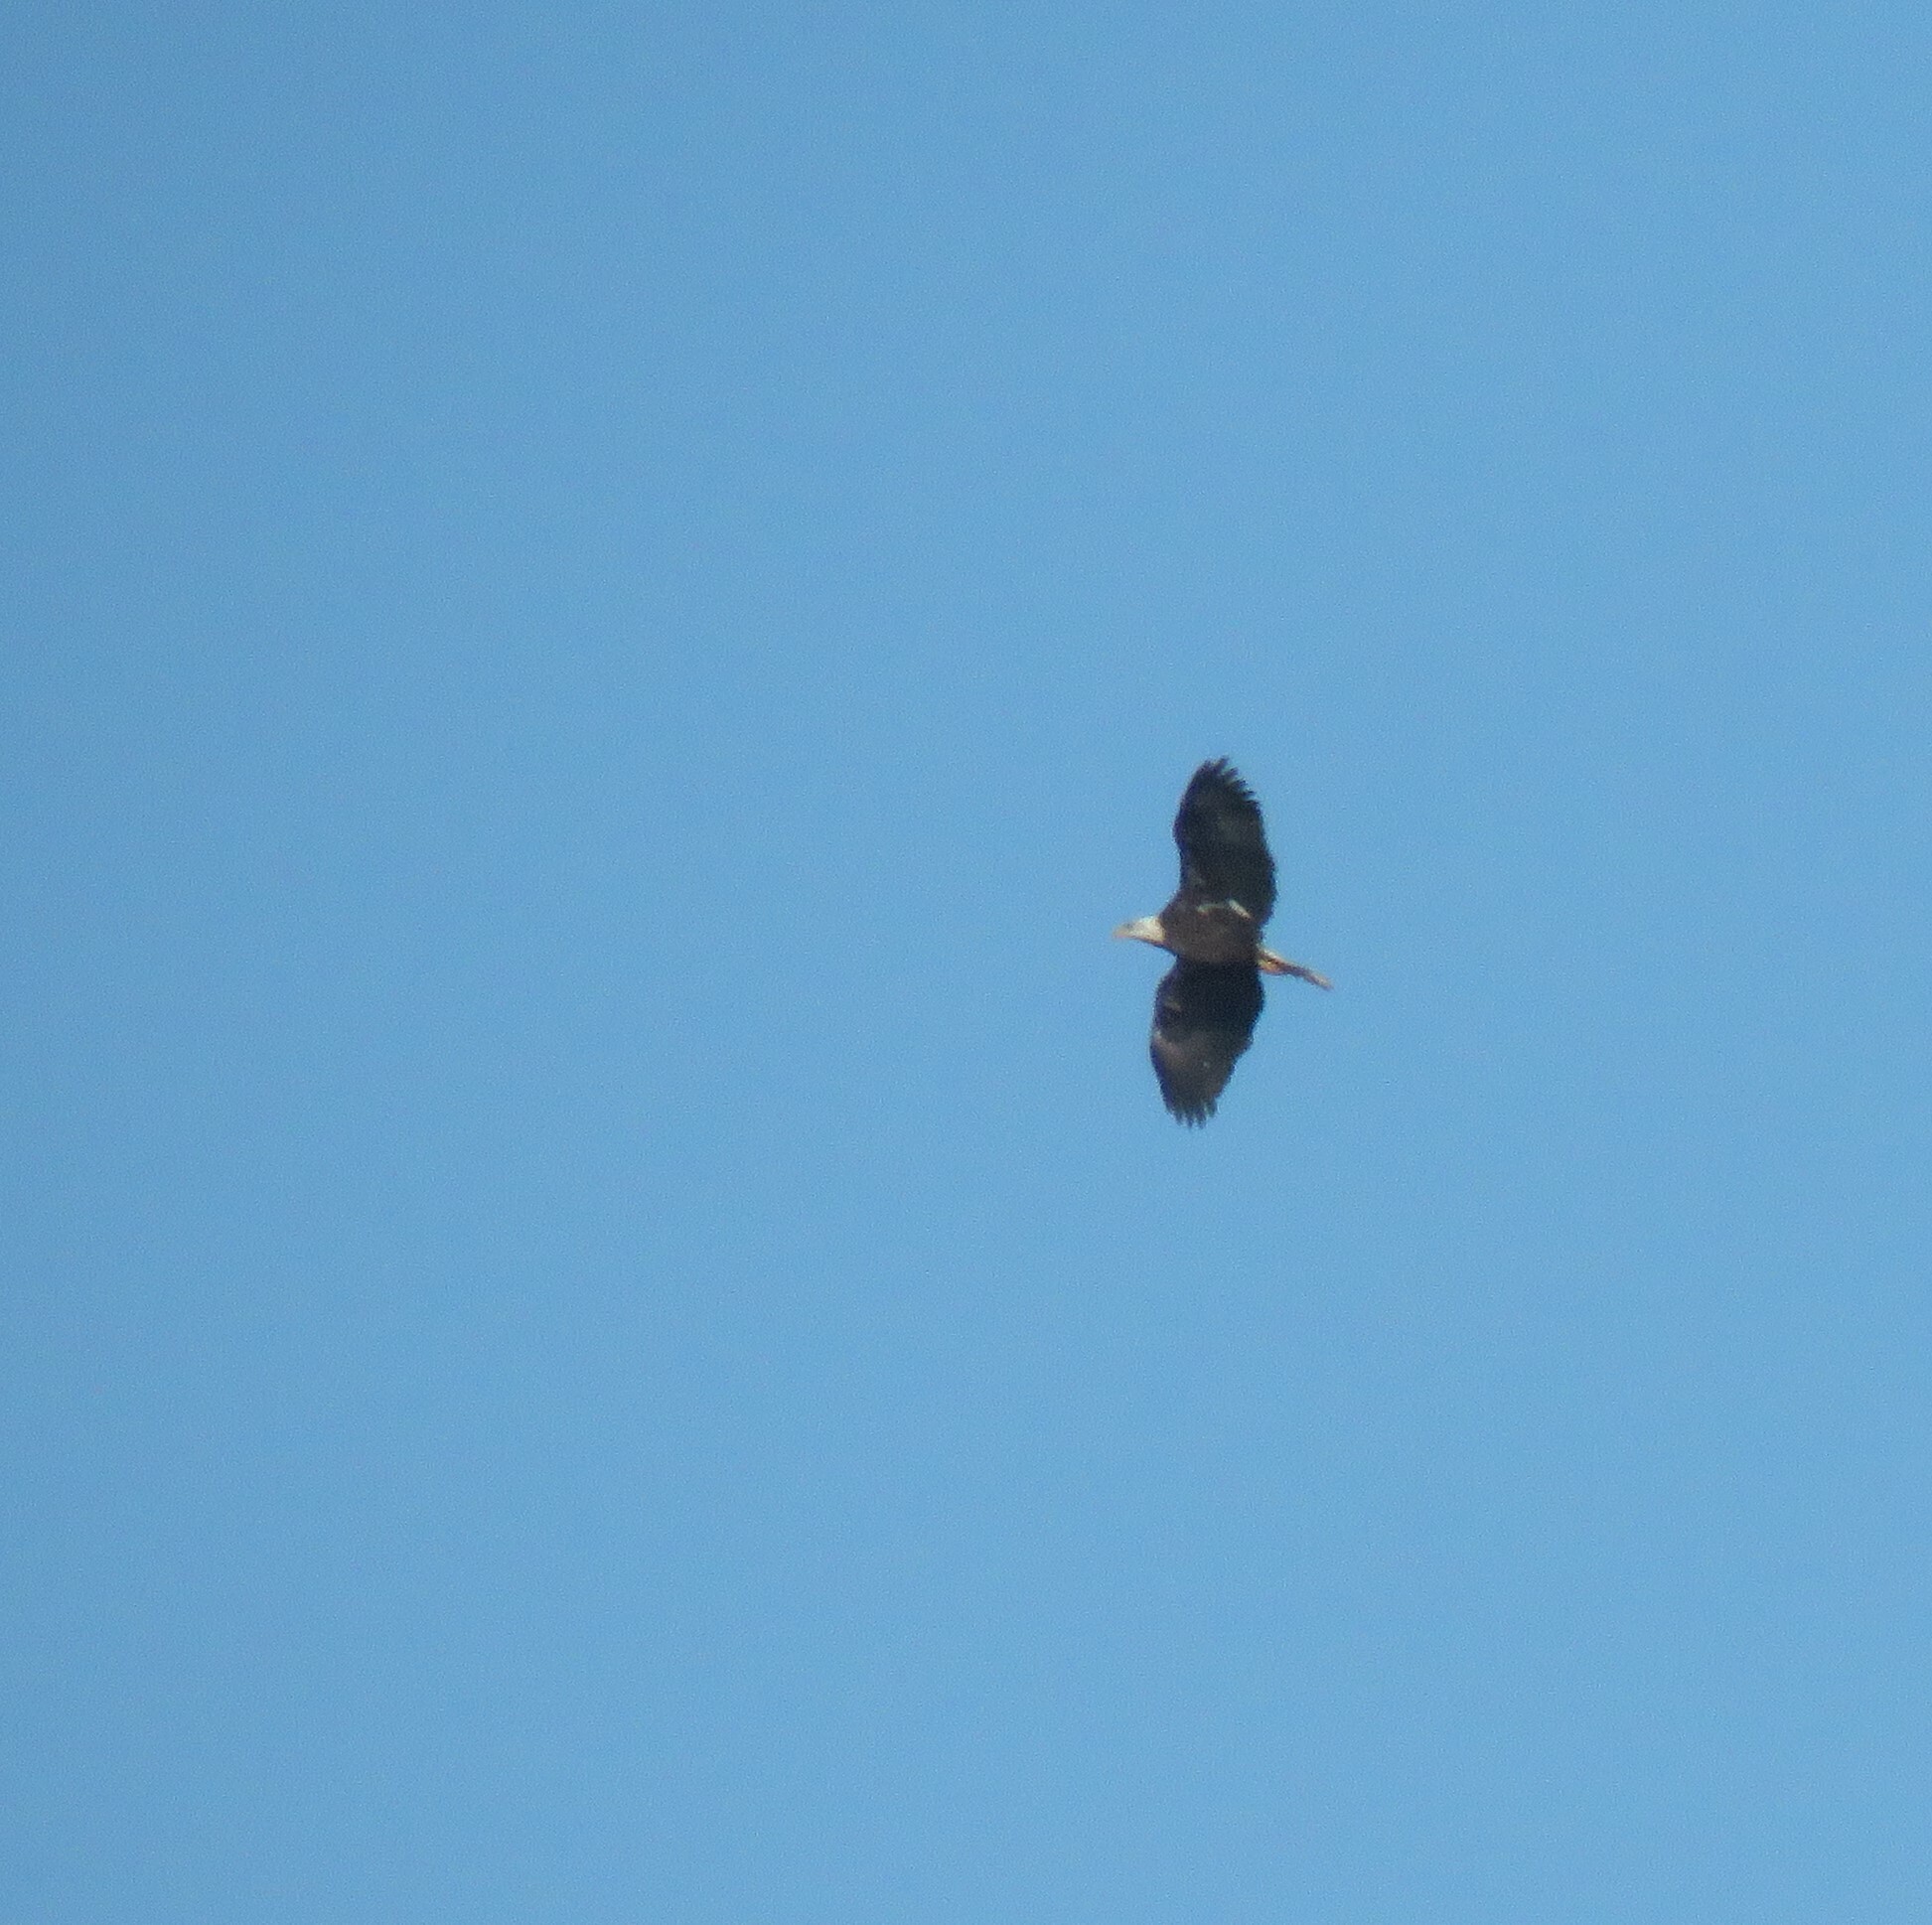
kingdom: Animalia
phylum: Chordata
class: Aves
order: Accipitriformes
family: Accipitridae
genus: Haliaeetus
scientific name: Haliaeetus leucocephalus
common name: Bald eagle
